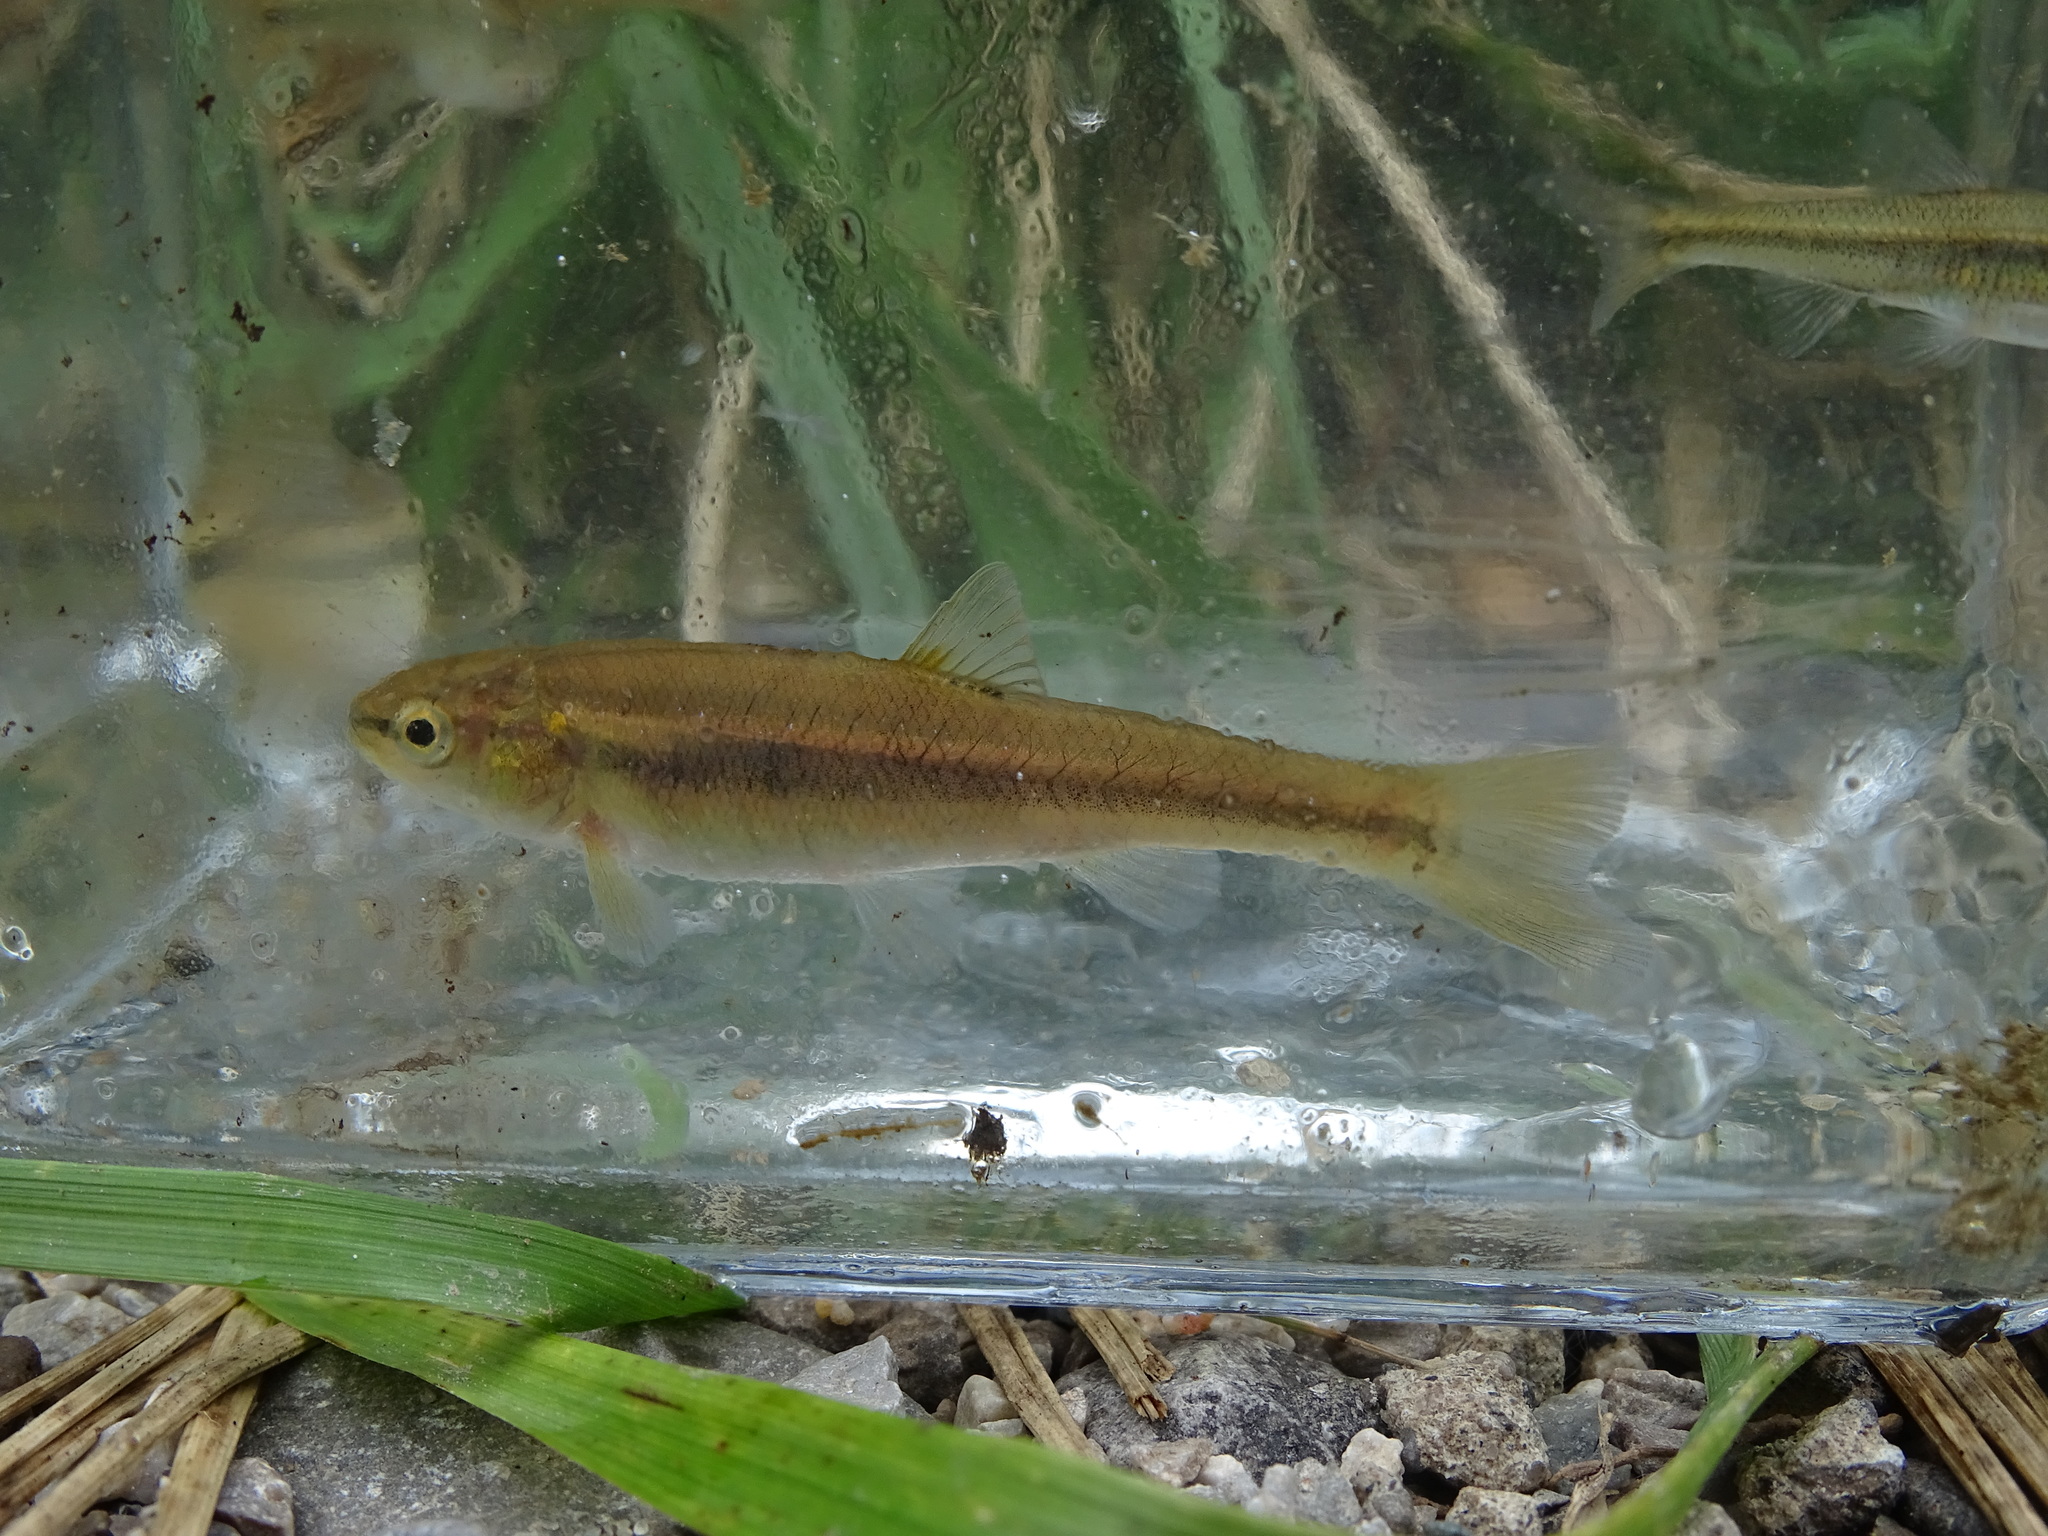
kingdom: Animalia
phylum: Chordata
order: Cypriniformes
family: Cyprinidae
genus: Semotilus
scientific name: Semotilus atromaculatus
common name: Creek chub
